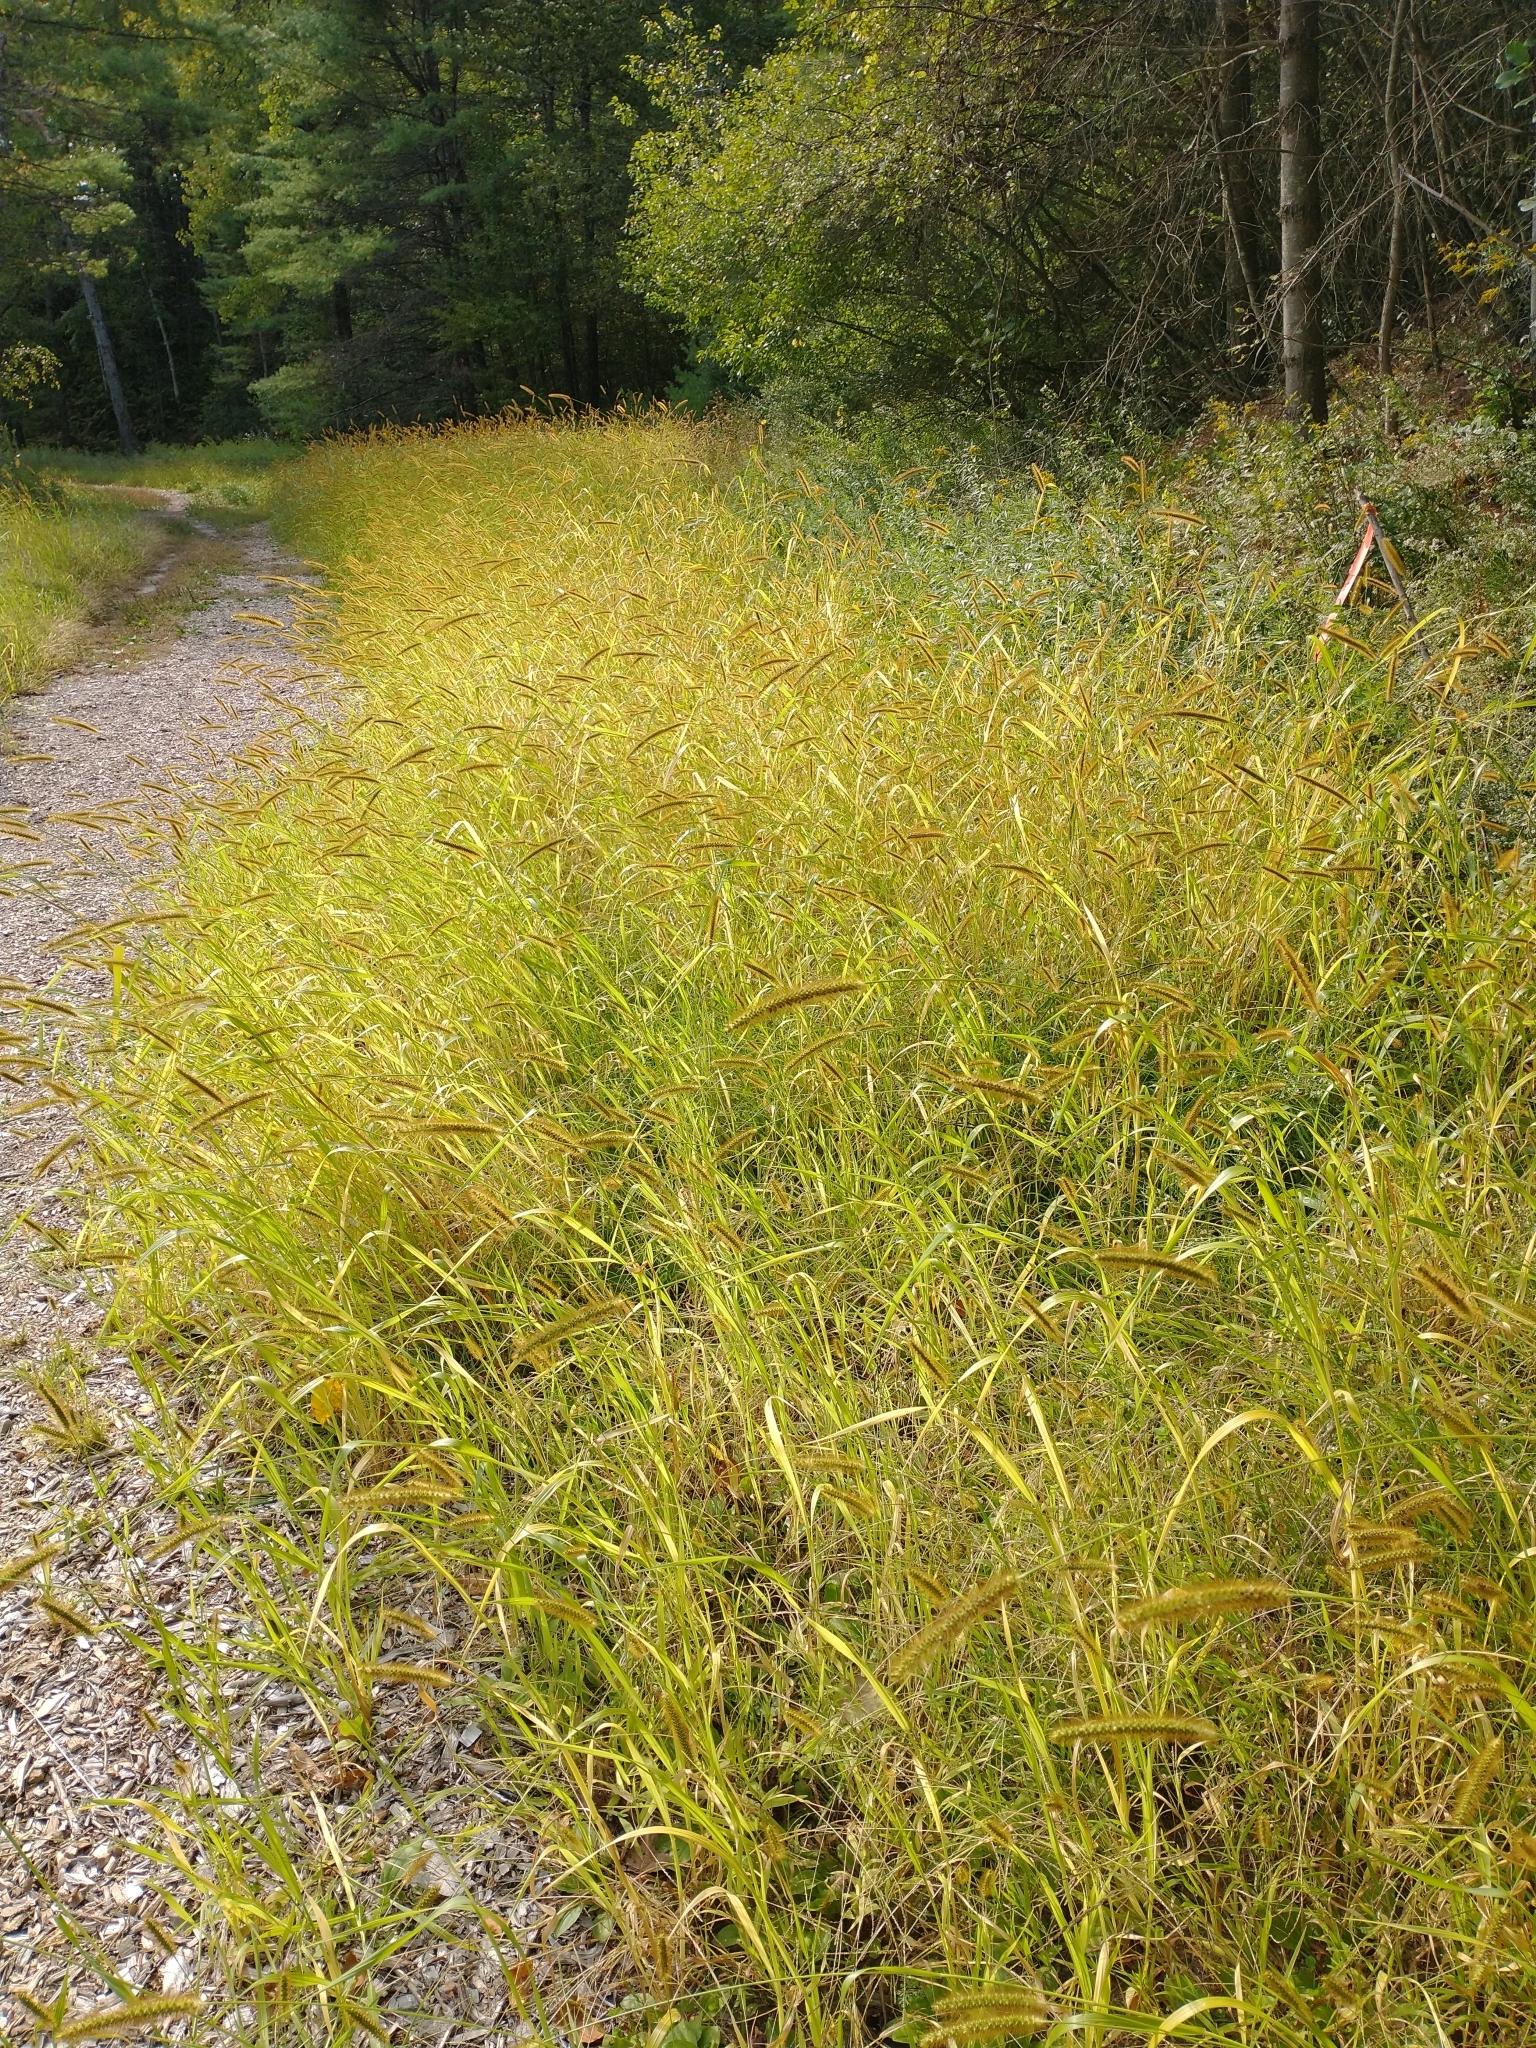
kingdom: Plantae
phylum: Tracheophyta
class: Liliopsida
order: Poales
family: Poaceae
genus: Setaria
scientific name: Setaria pumila
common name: Yellow bristle-grass
